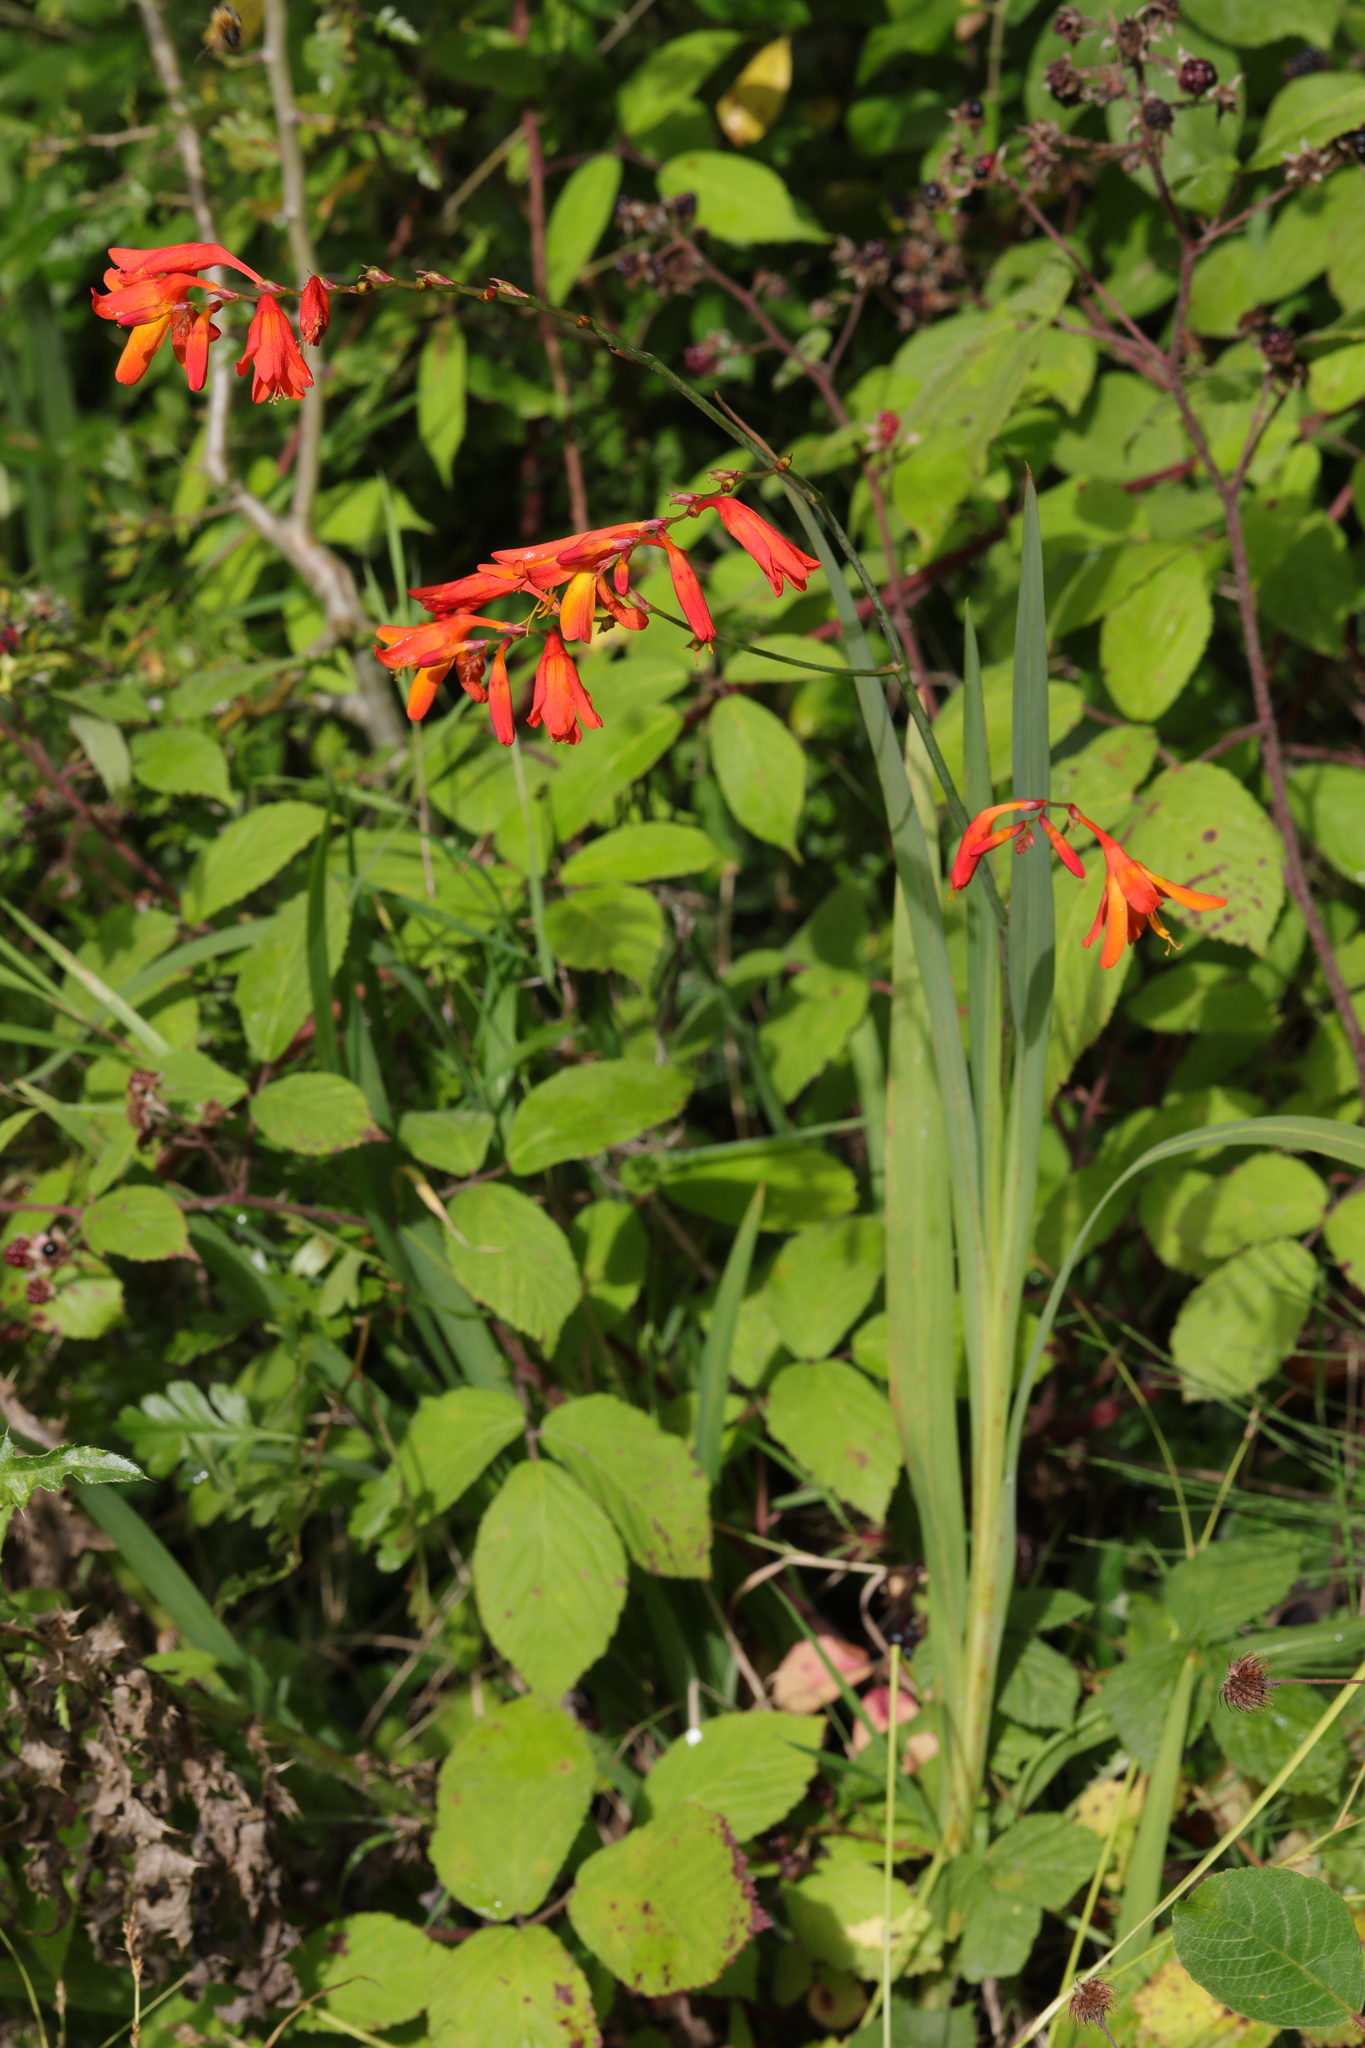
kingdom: Plantae
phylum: Tracheophyta
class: Liliopsida
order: Asparagales
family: Iridaceae
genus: Crocosmia
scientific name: Crocosmia crocosmiiflora
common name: Montbretia
